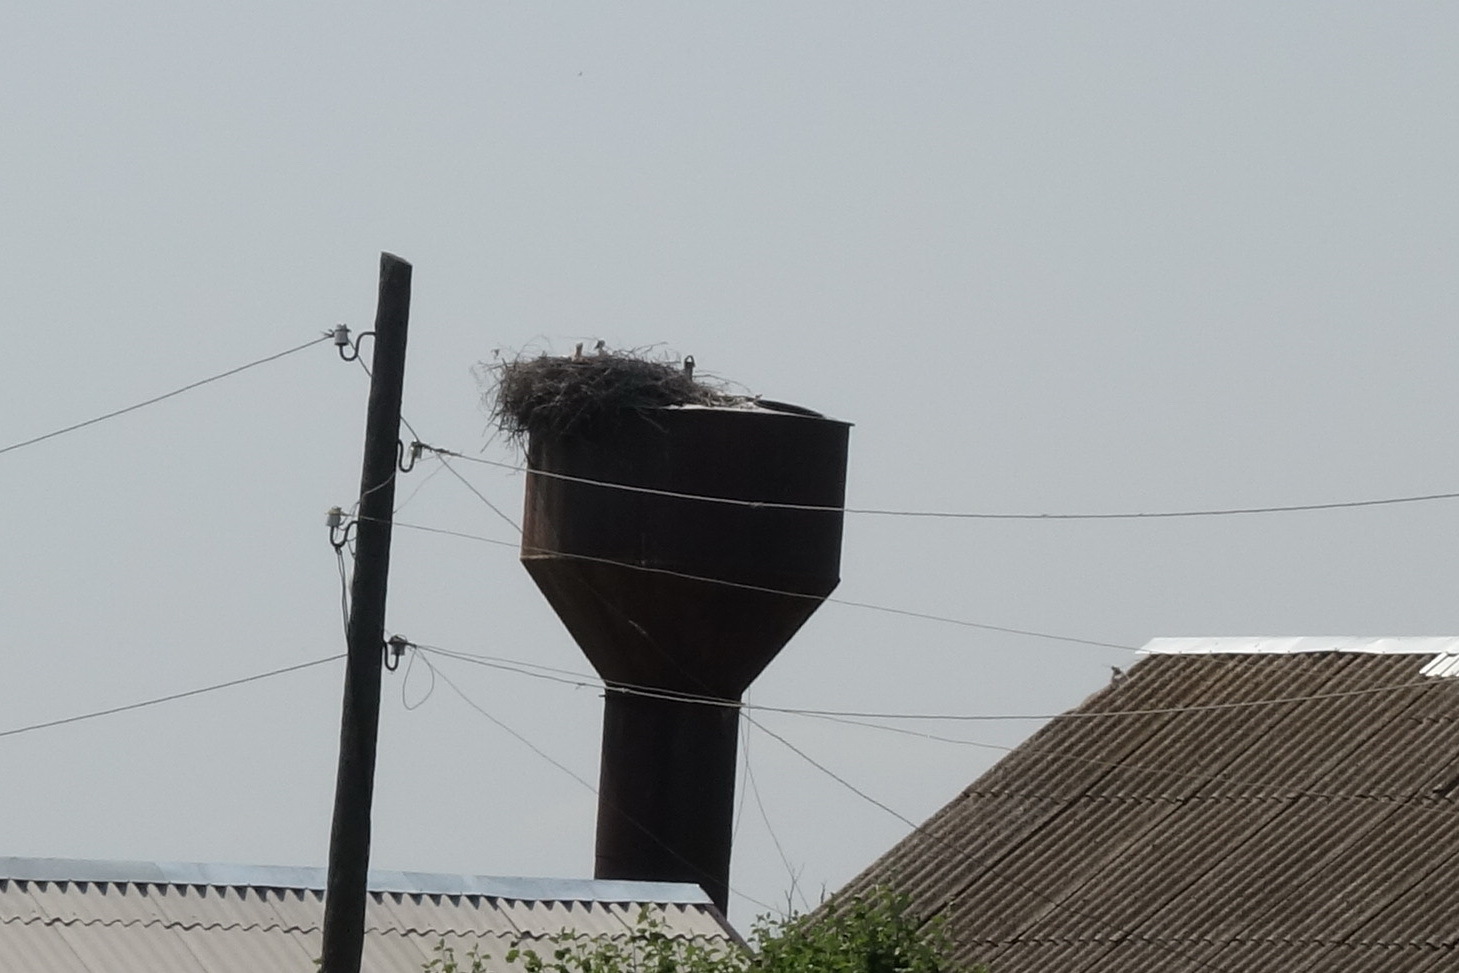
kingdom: Animalia
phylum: Chordata
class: Aves
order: Ciconiiformes
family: Ciconiidae
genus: Ciconia
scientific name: Ciconia ciconia
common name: White stork
